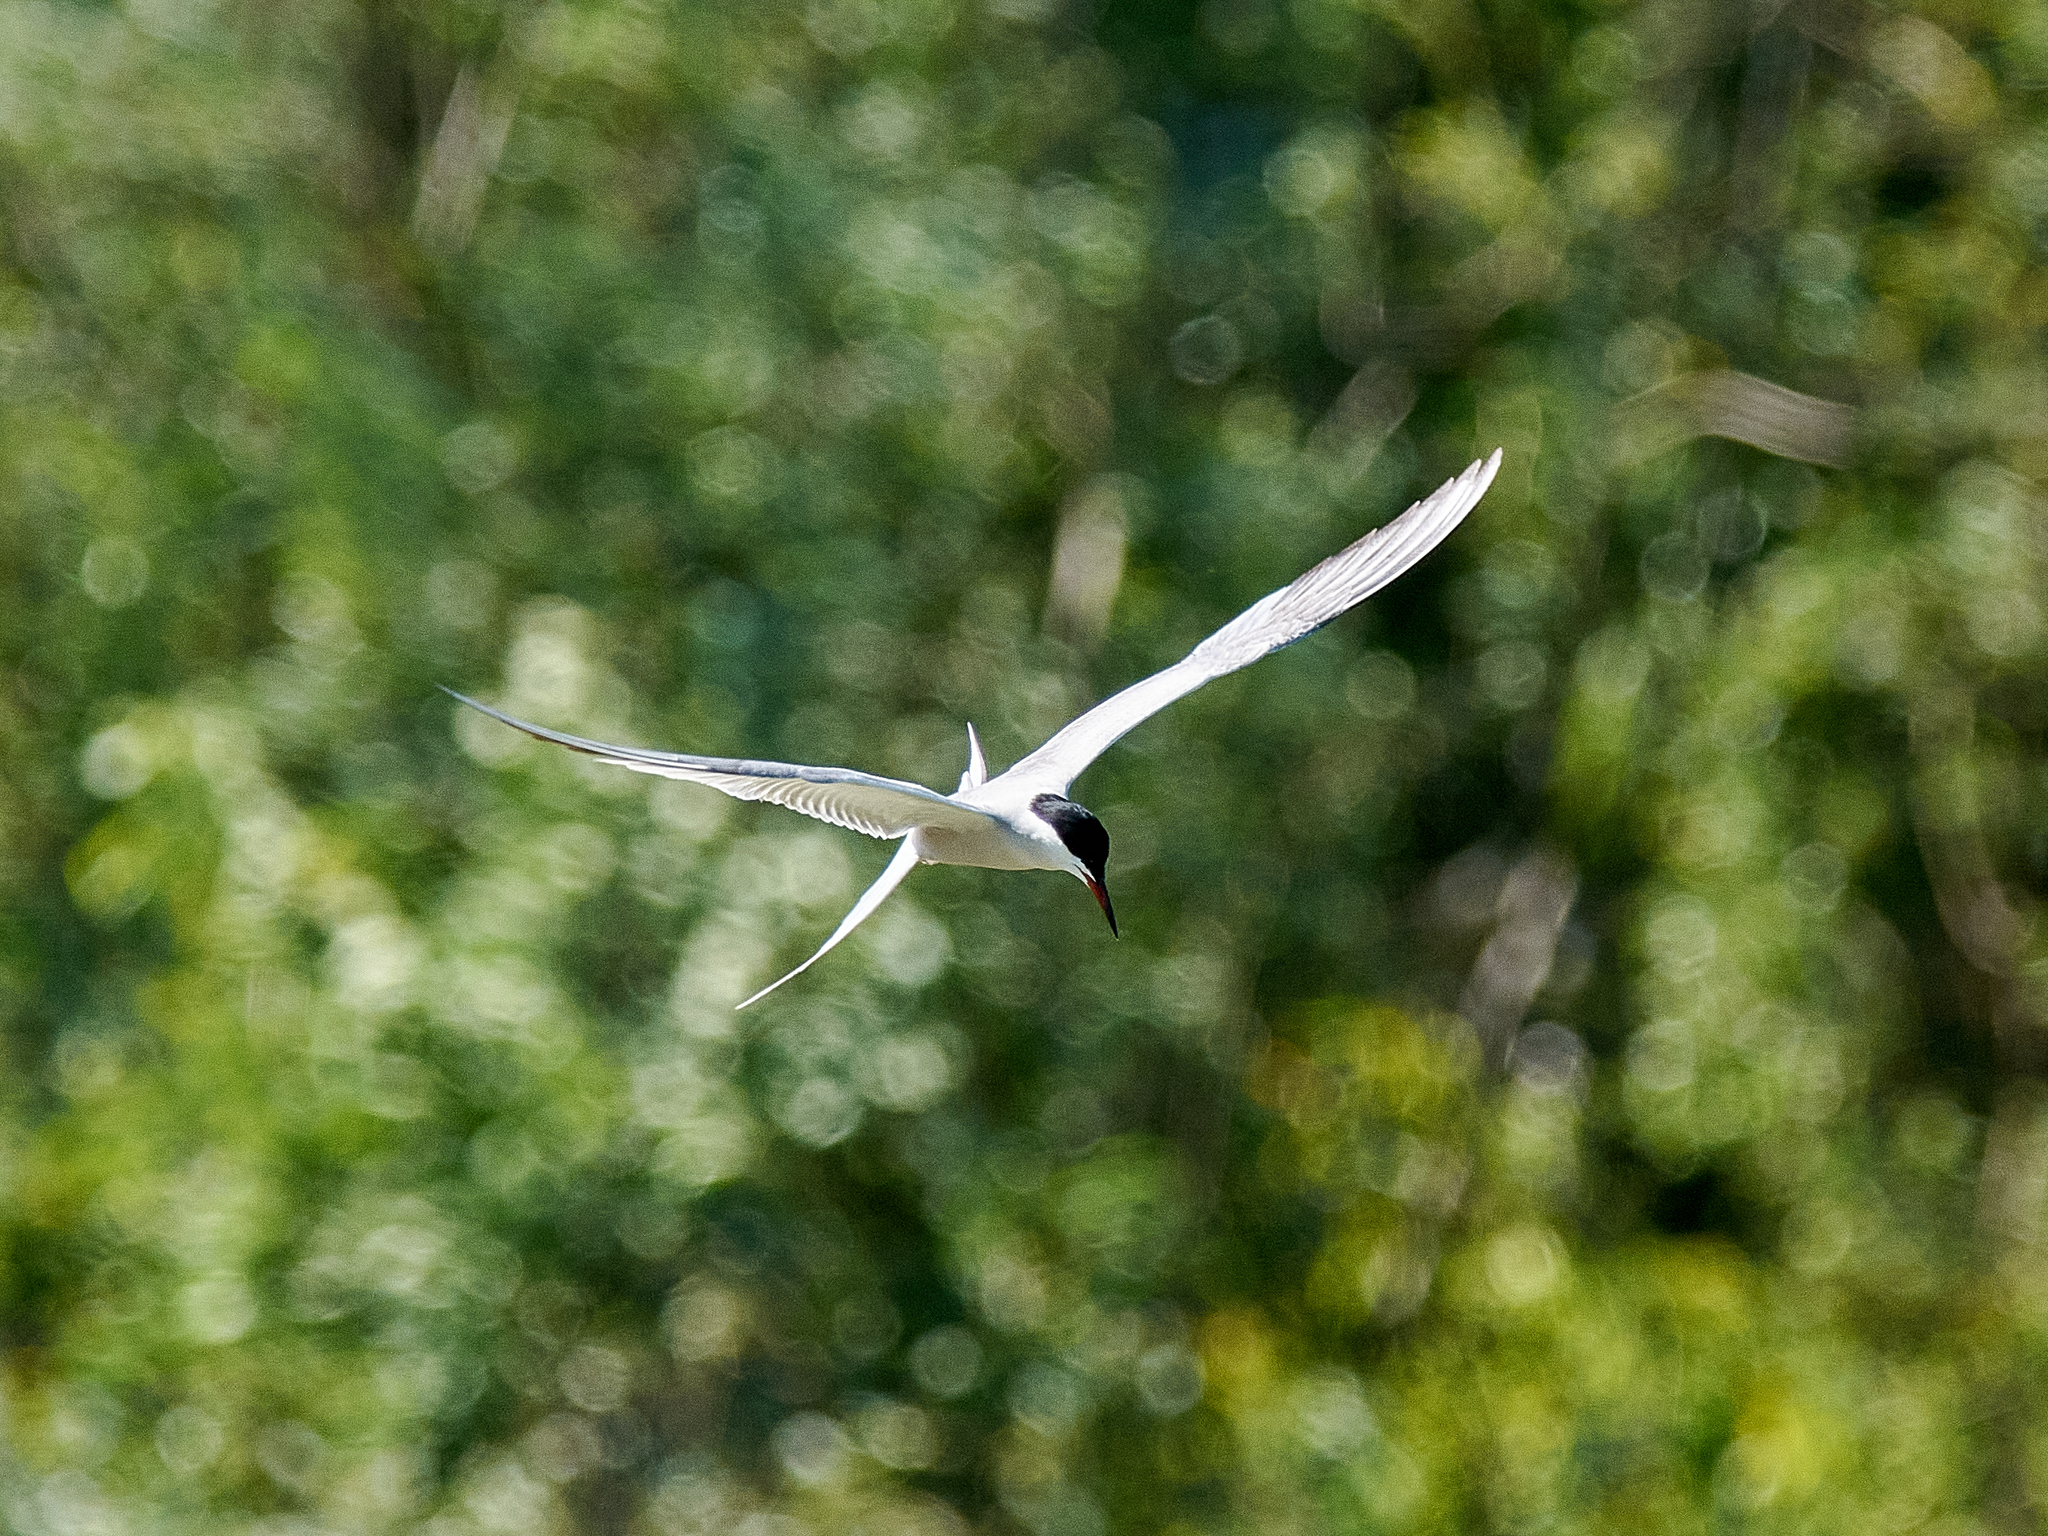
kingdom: Animalia
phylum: Chordata
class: Aves
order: Charadriiformes
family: Laridae
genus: Sterna
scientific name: Sterna hirundo
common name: Common tern
